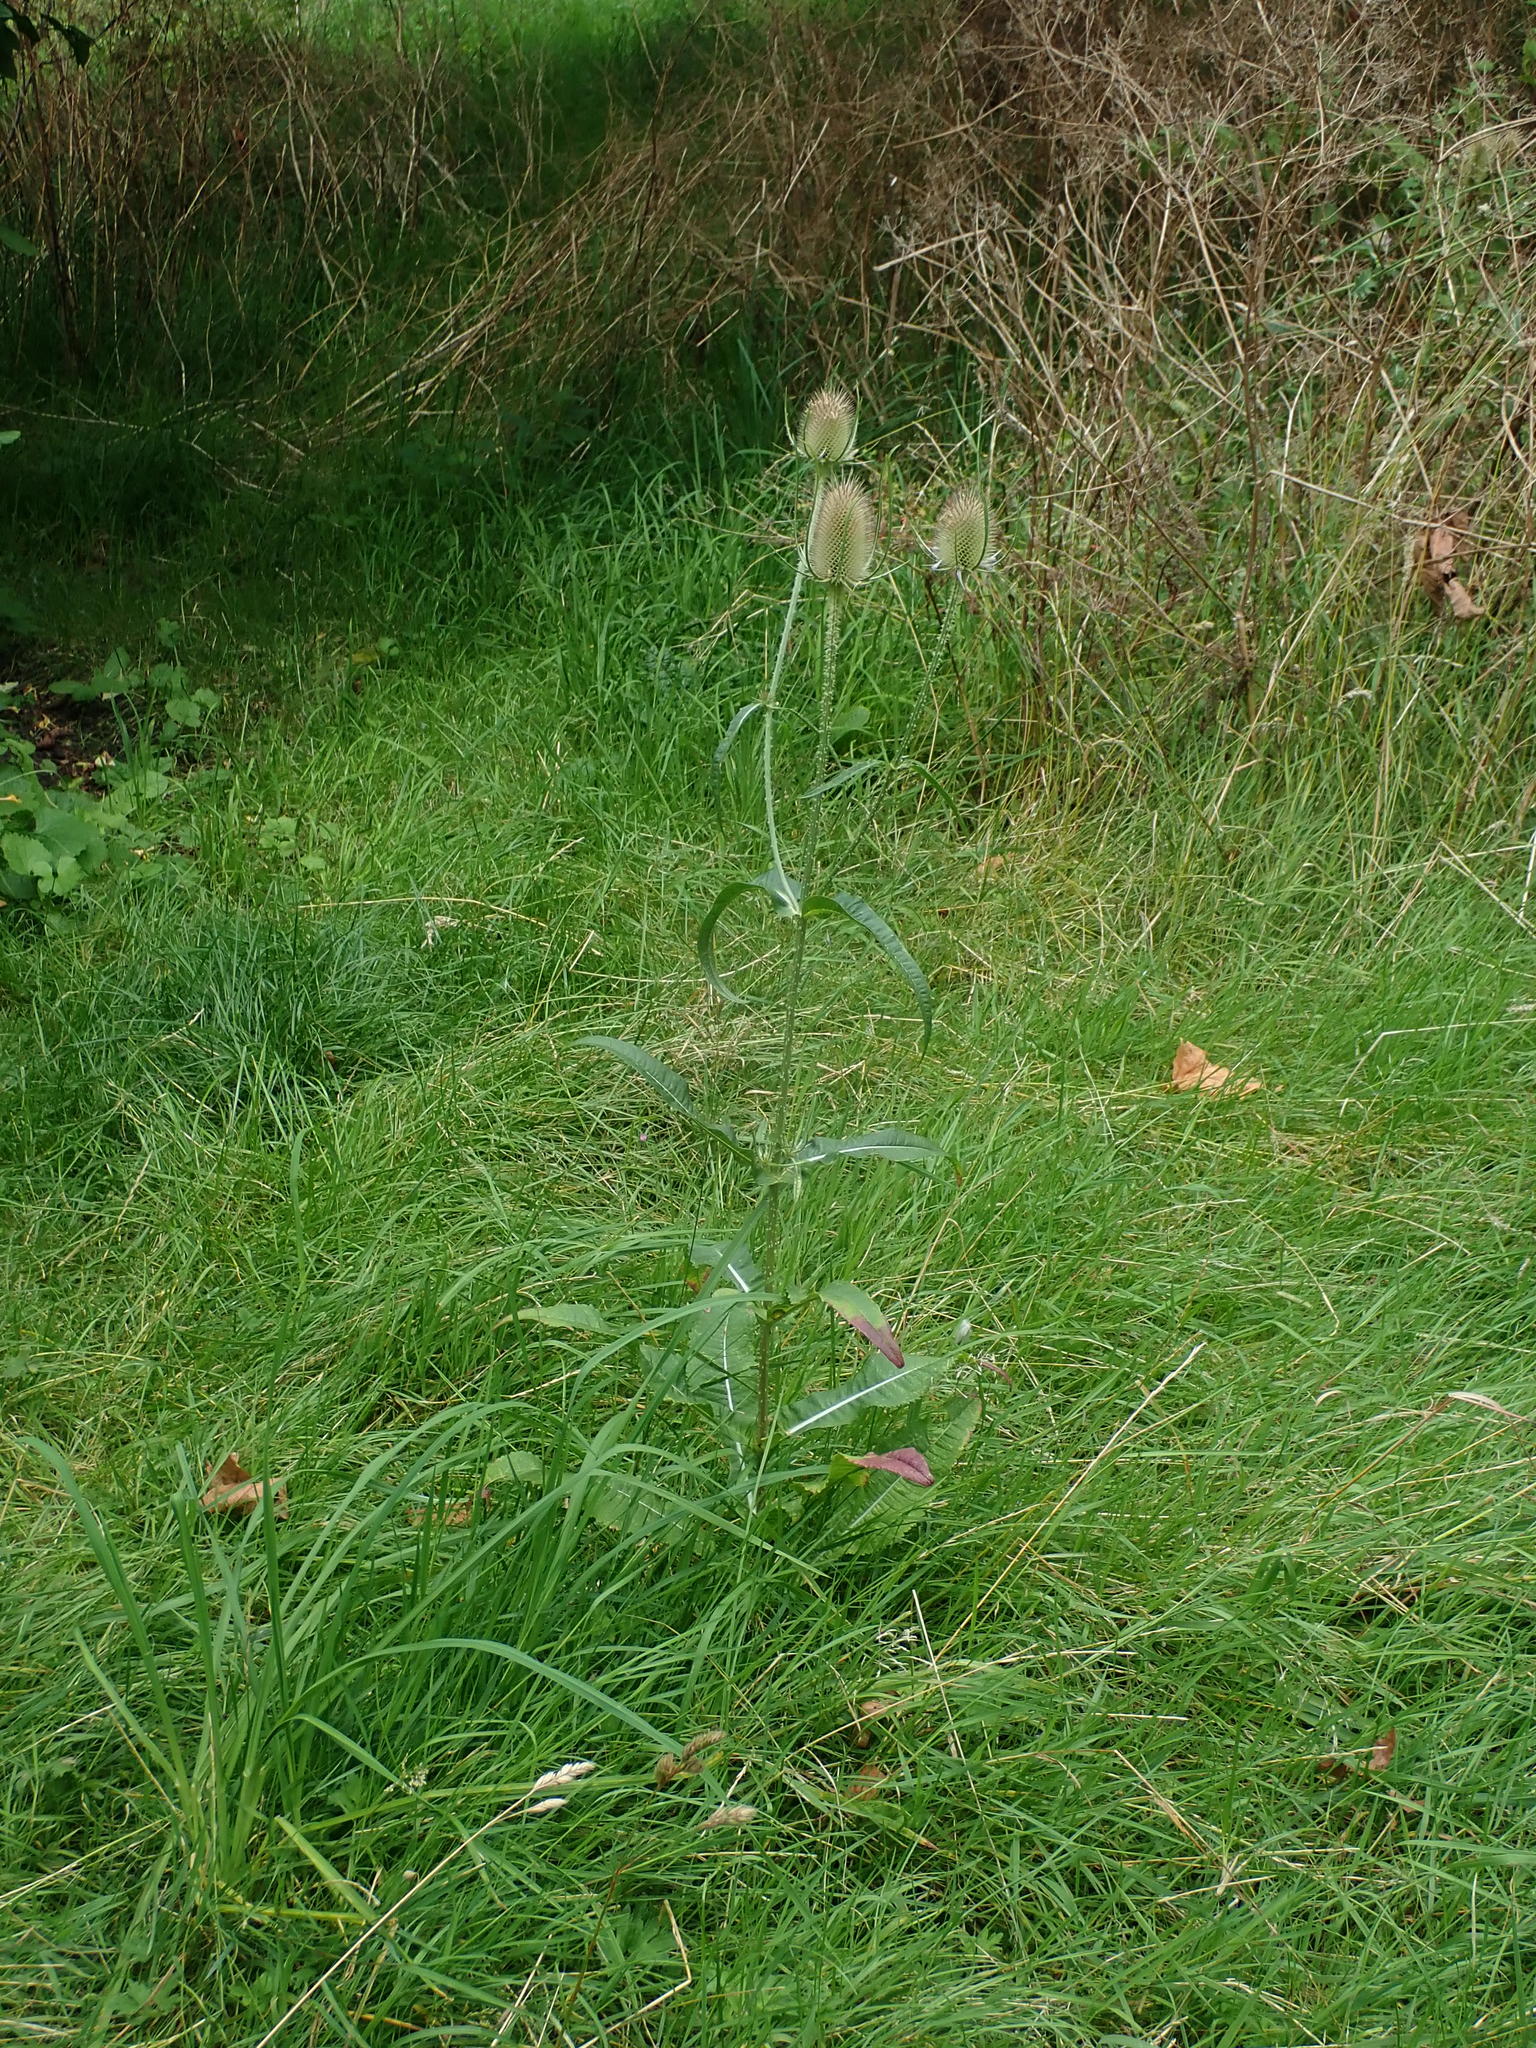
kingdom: Plantae
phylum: Tracheophyta
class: Magnoliopsida
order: Dipsacales
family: Caprifoliaceae
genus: Dipsacus
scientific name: Dipsacus fullonum
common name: Teasel
